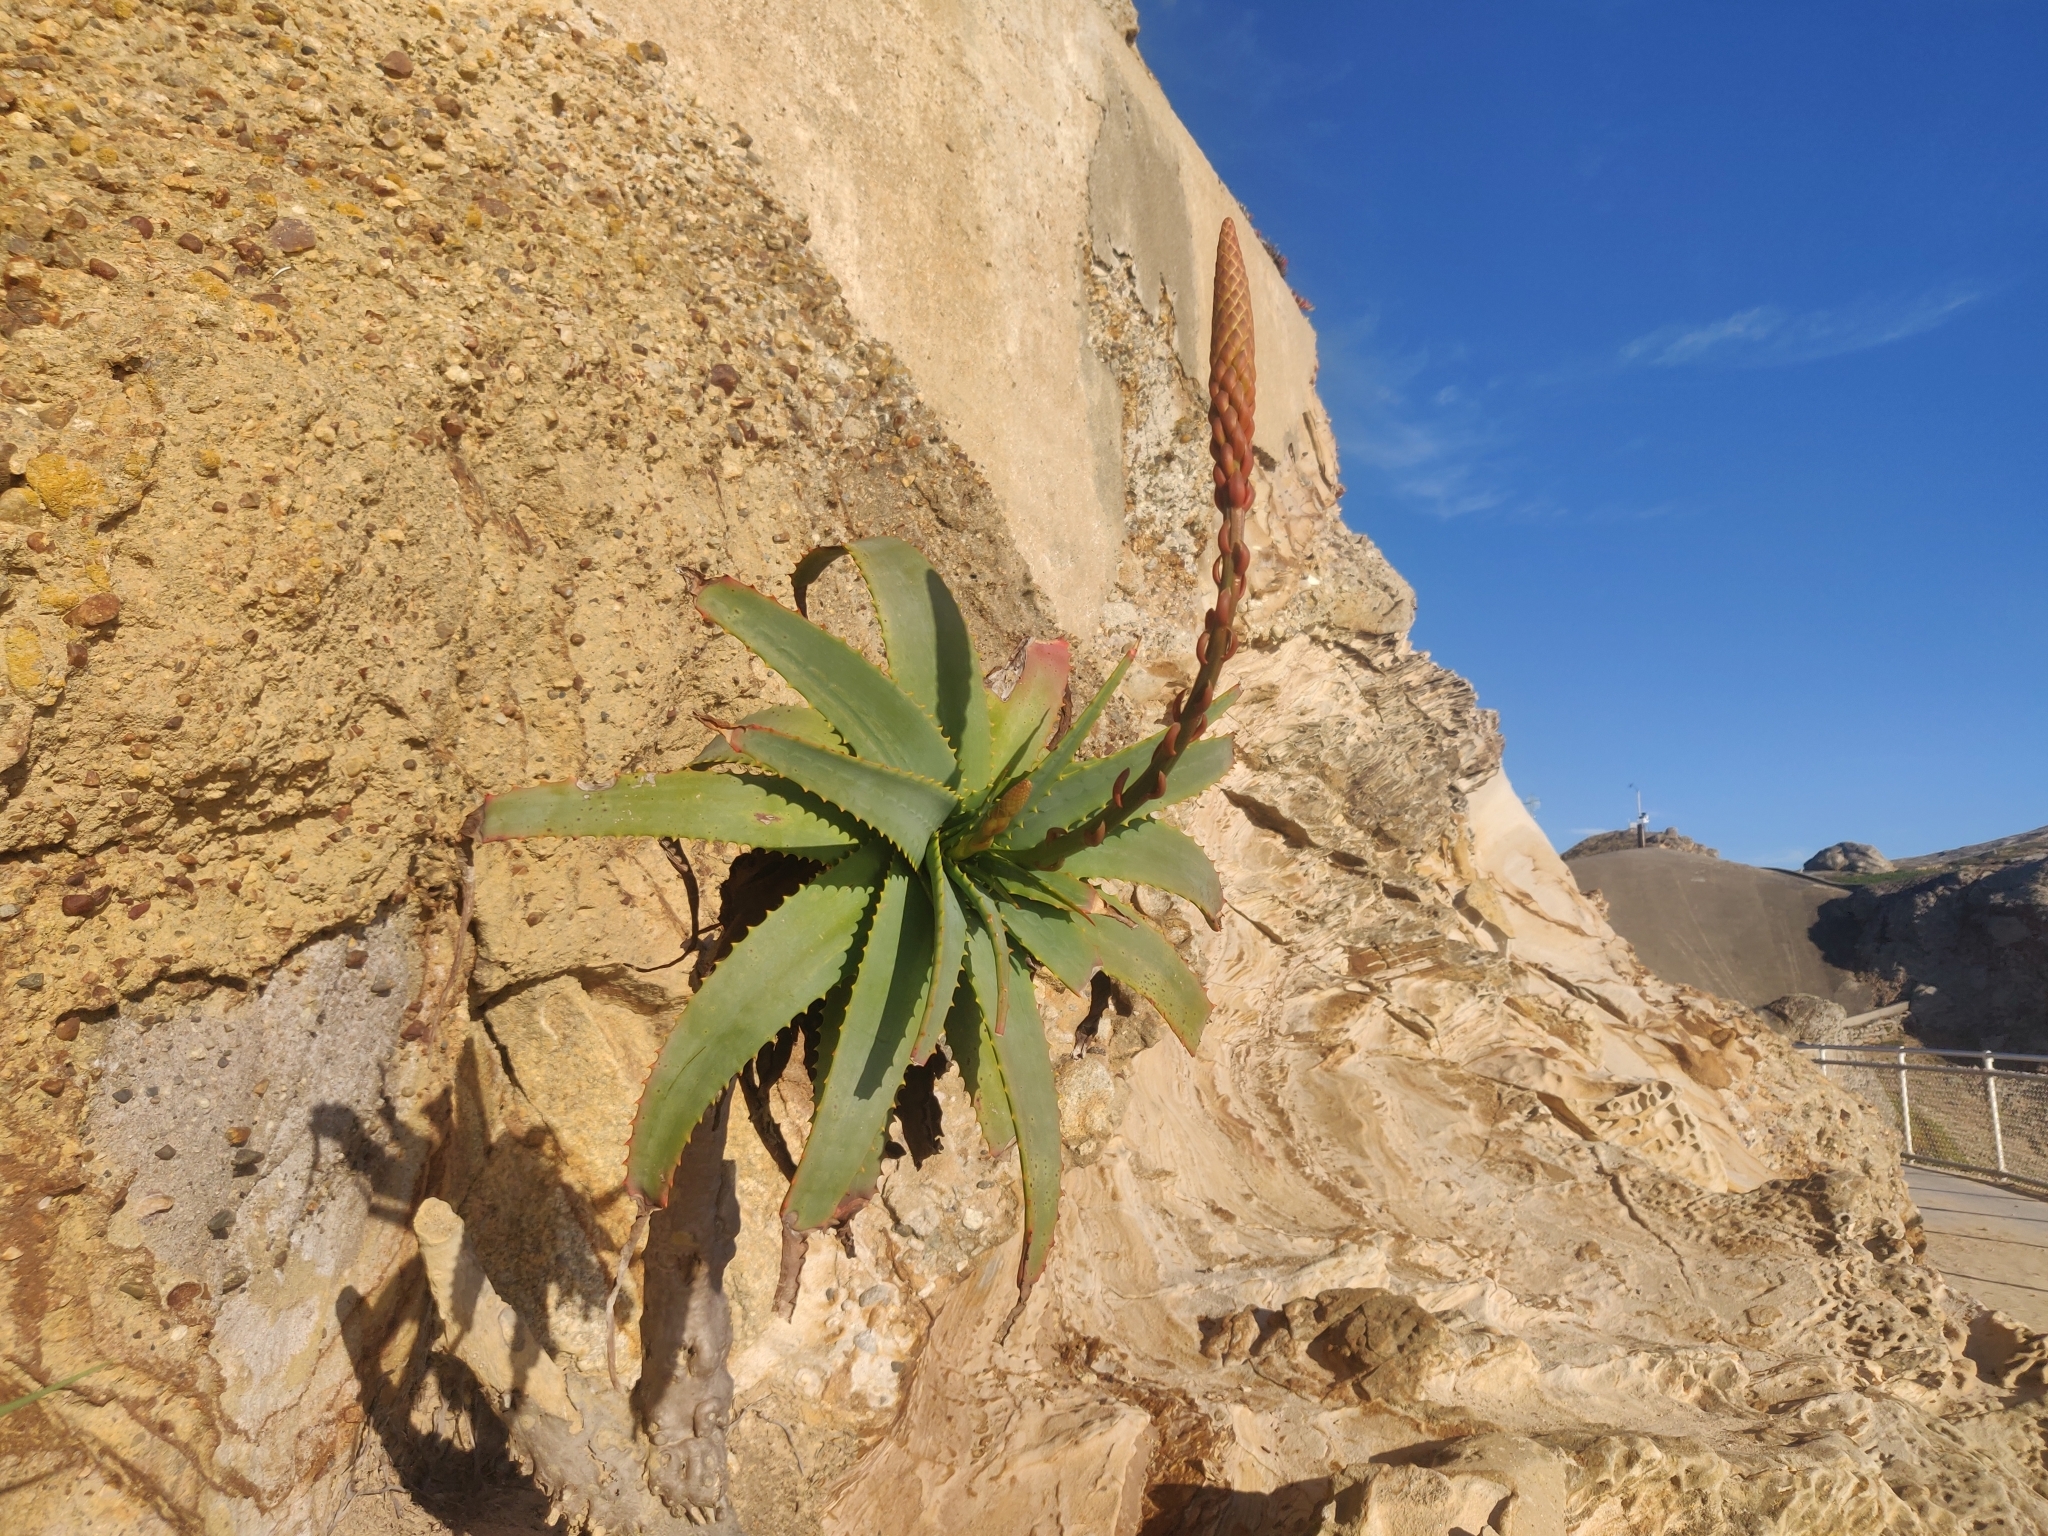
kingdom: Plantae
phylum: Tracheophyta
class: Liliopsida
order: Asparagales
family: Asphodelaceae
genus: Aloe
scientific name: Aloe arborescens
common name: Candelabra aloe
